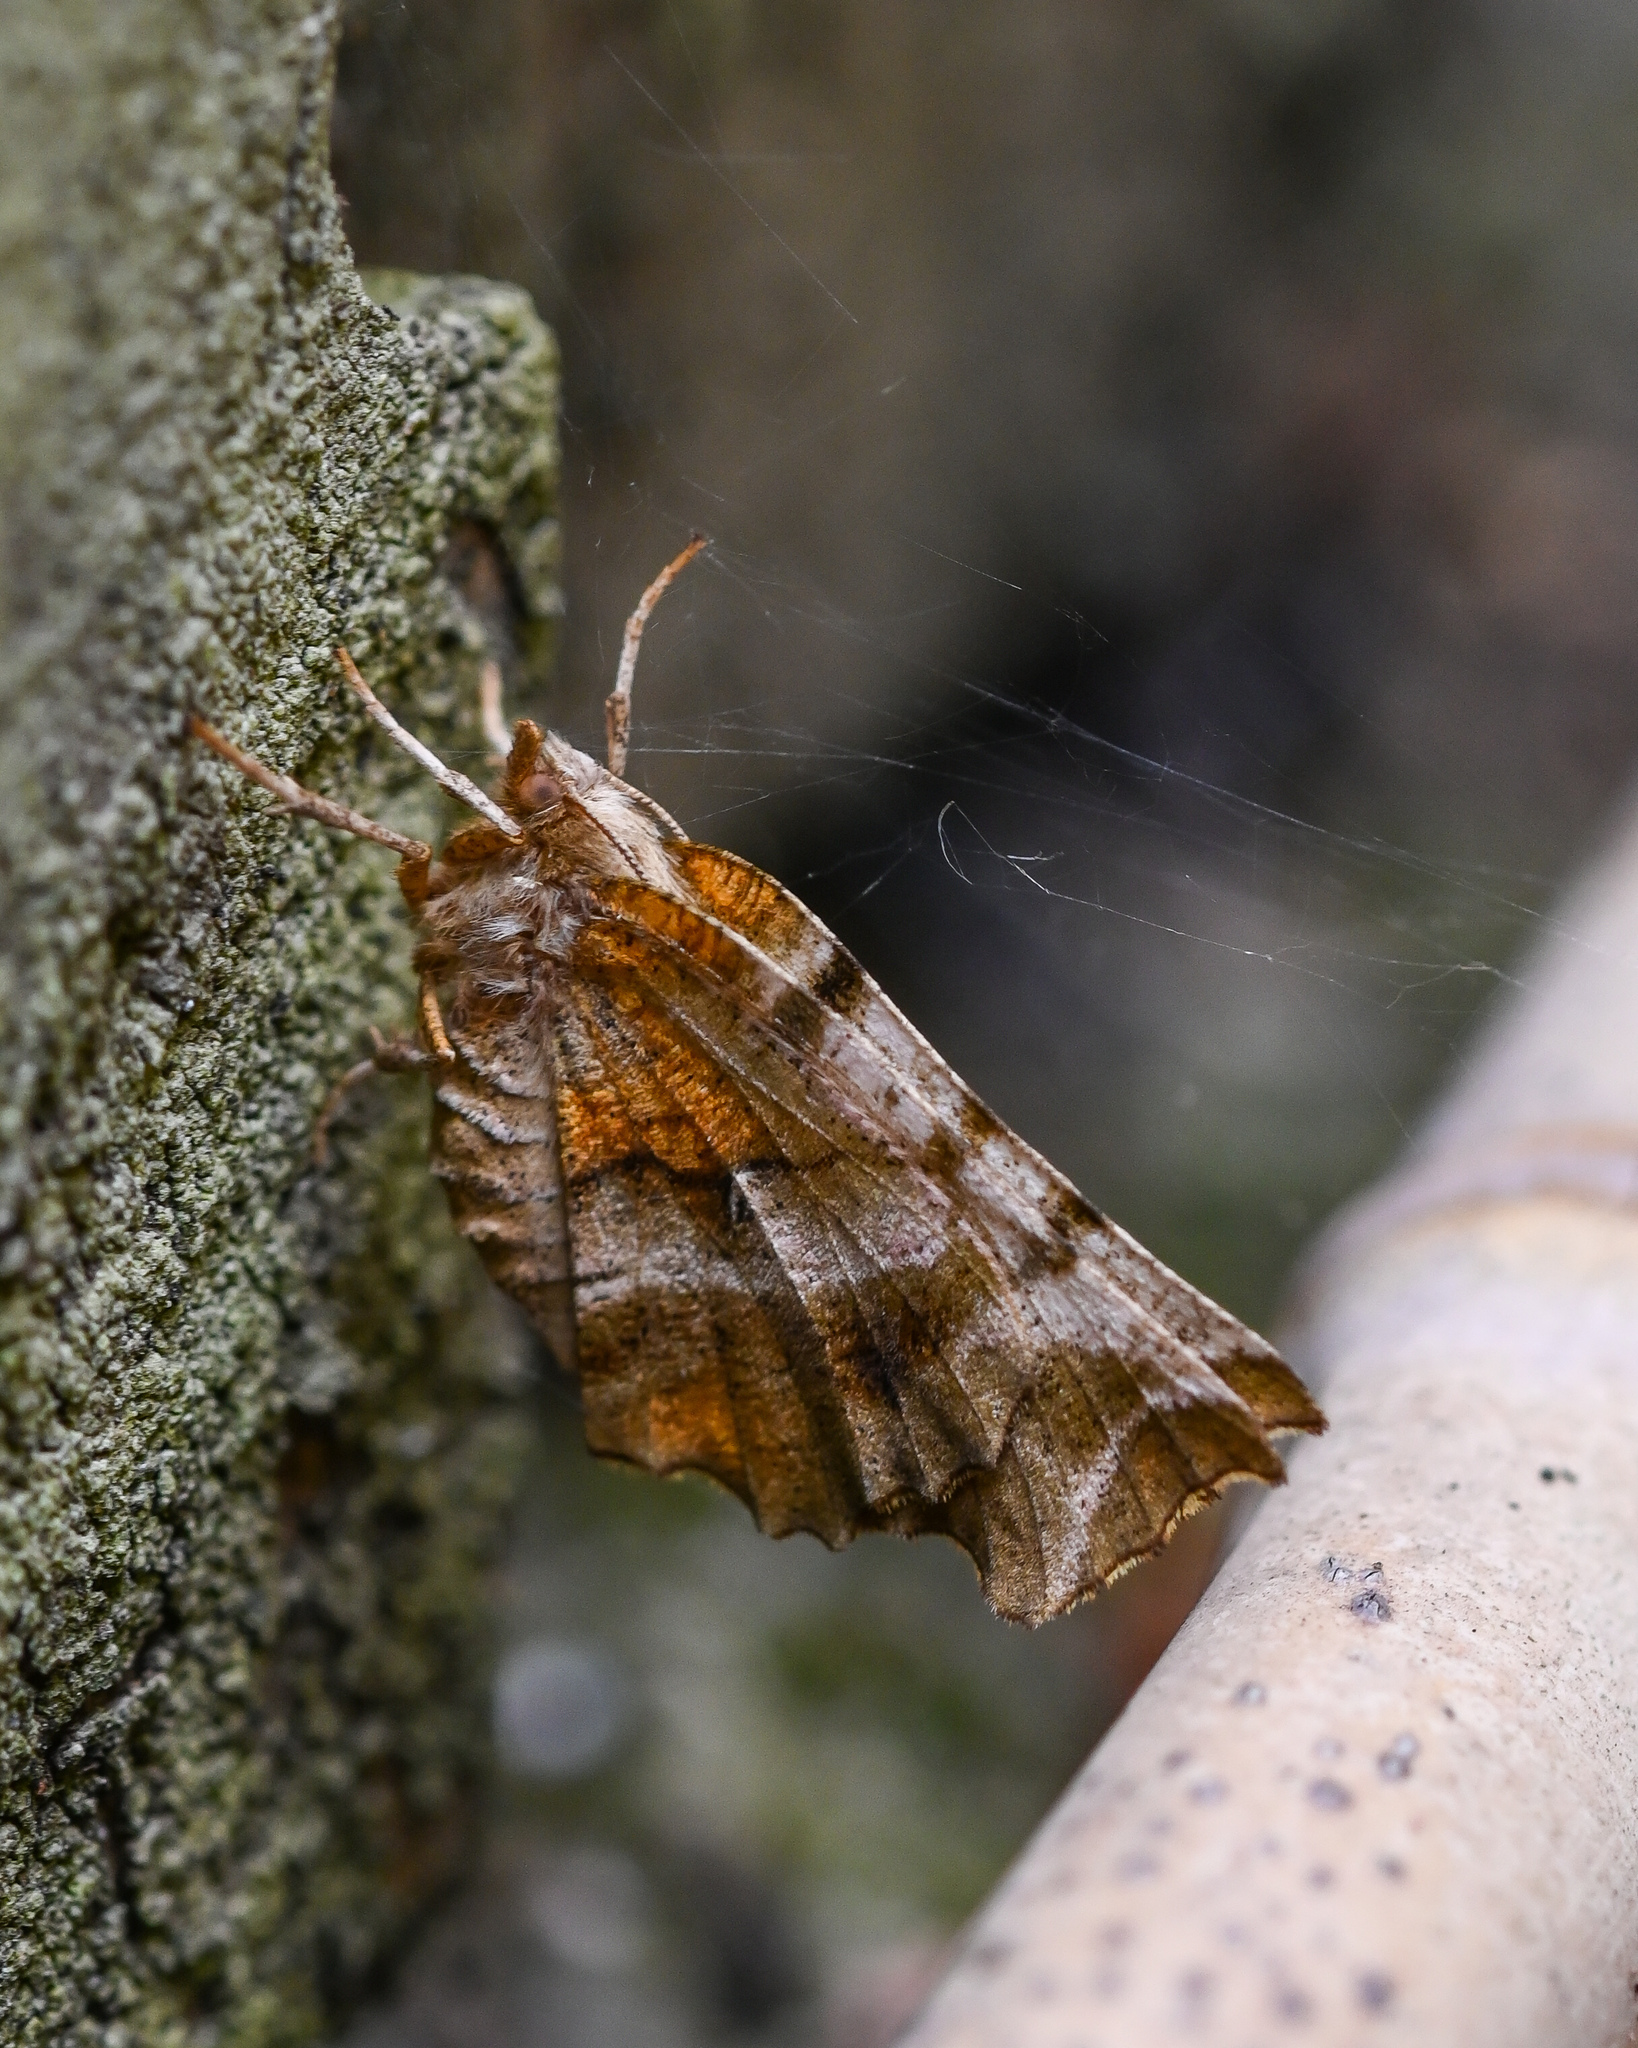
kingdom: Animalia
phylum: Arthropoda
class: Insecta
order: Lepidoptera
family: Geometridae
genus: Selenia
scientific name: Selenia dentaria
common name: Early thorn
